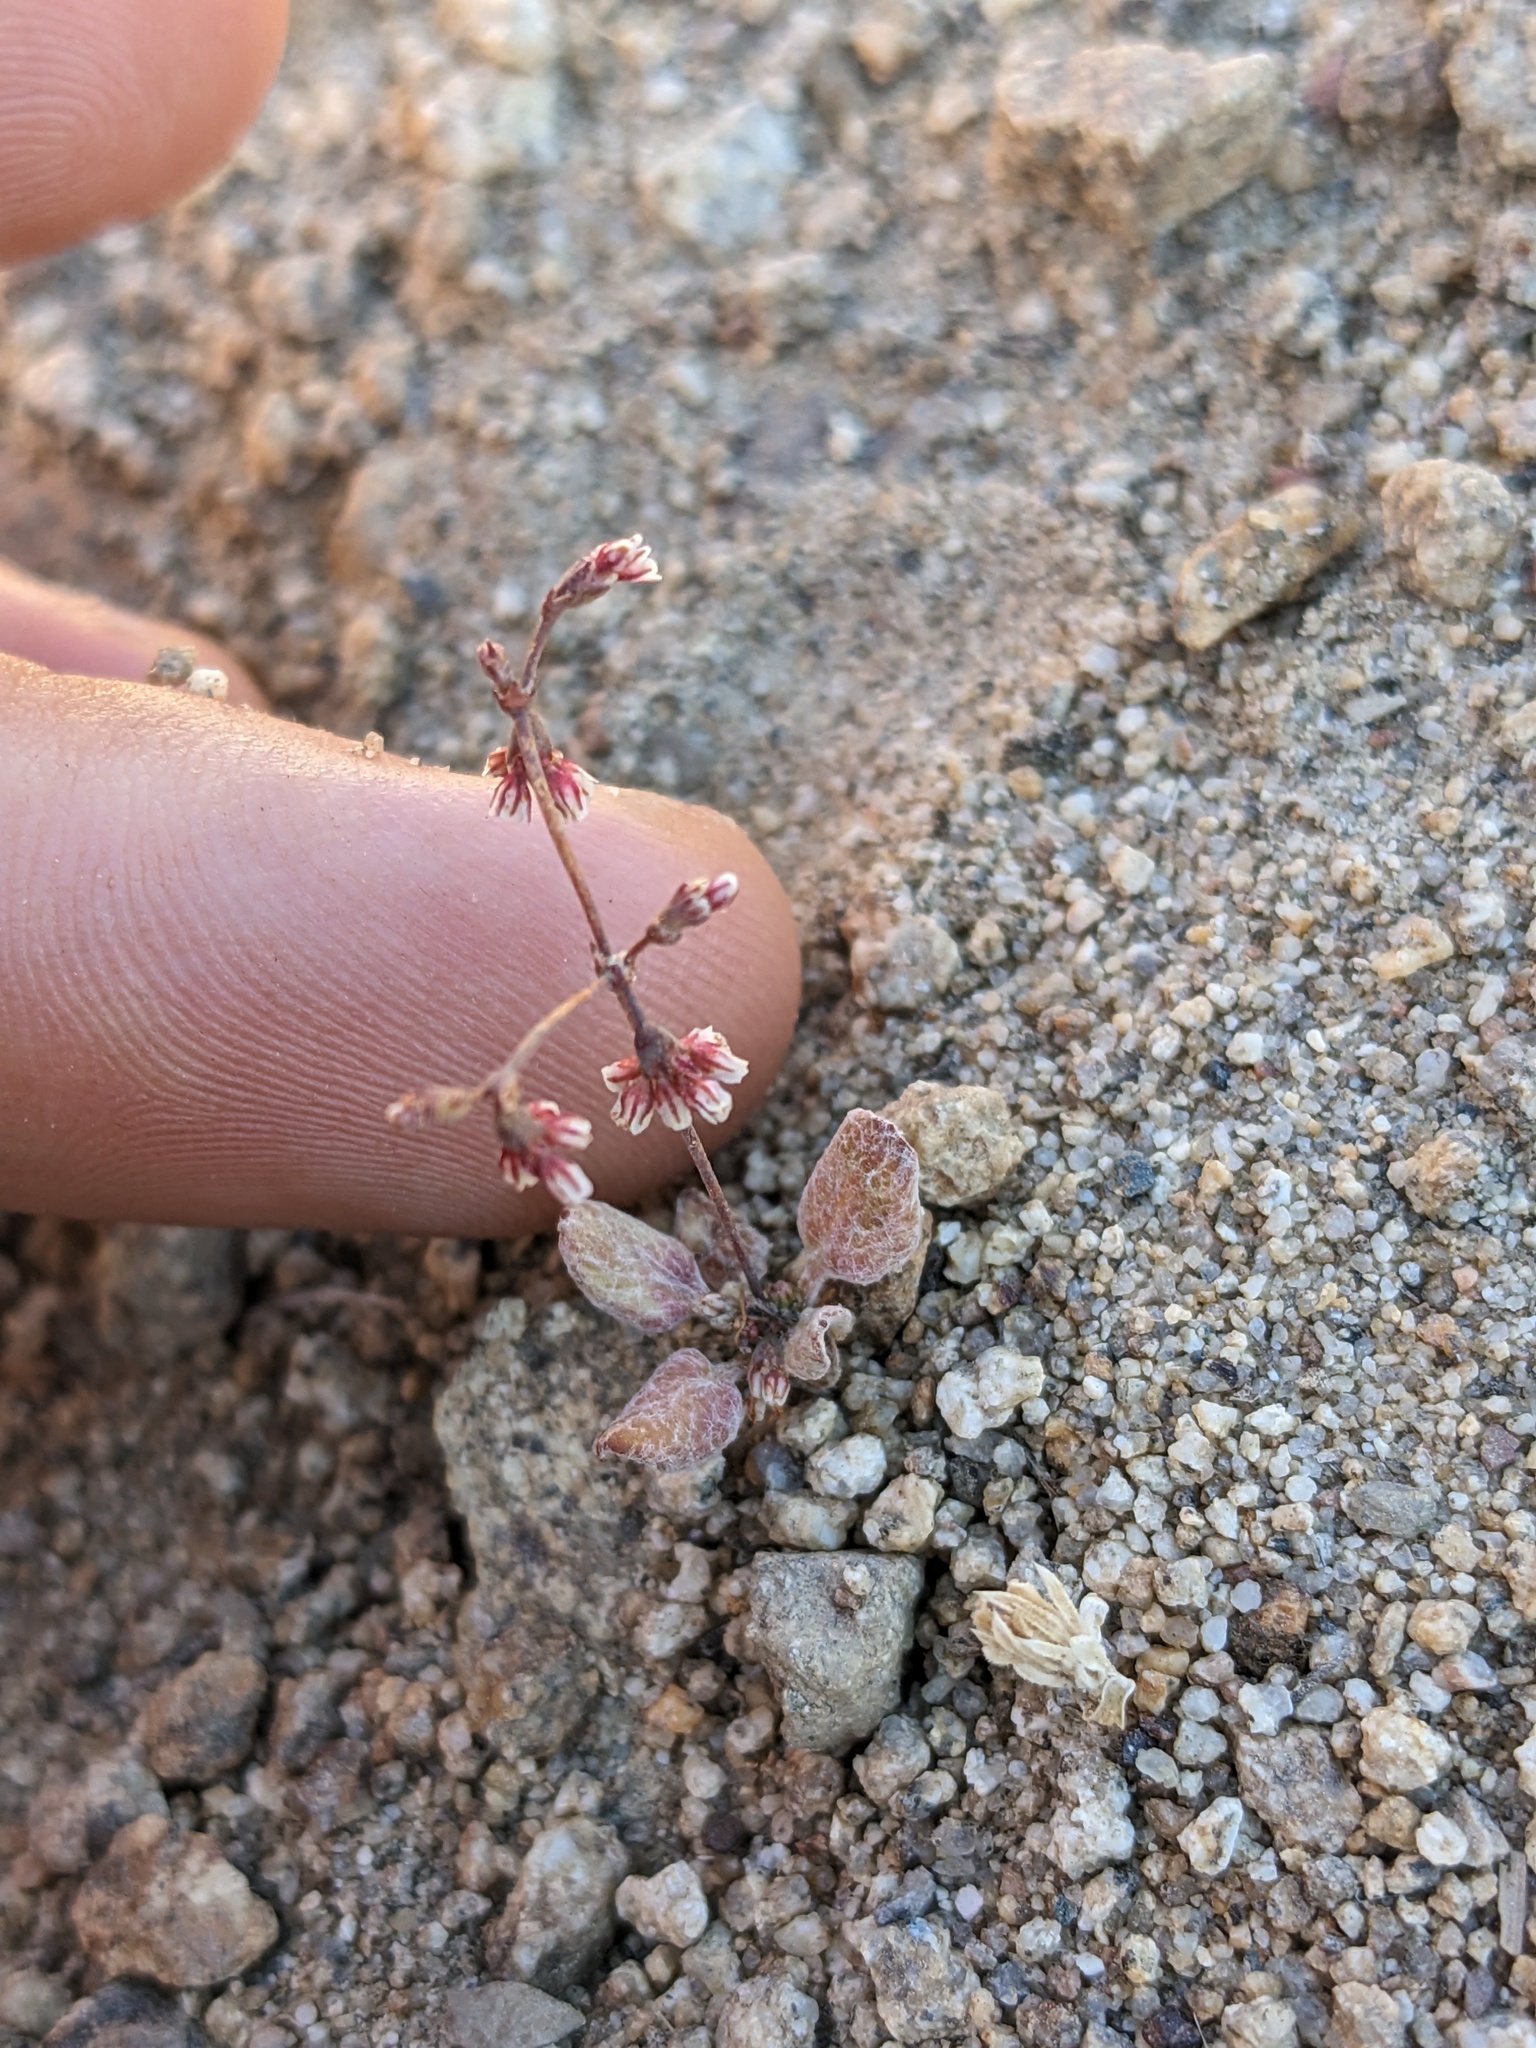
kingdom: Plantae
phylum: Tracheophyta
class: Magnoliopsida
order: Caryophyllales
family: Polygonaceae
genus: Eriogonum
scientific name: Eriogonum cernuum
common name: Nodding wild buckwheat
